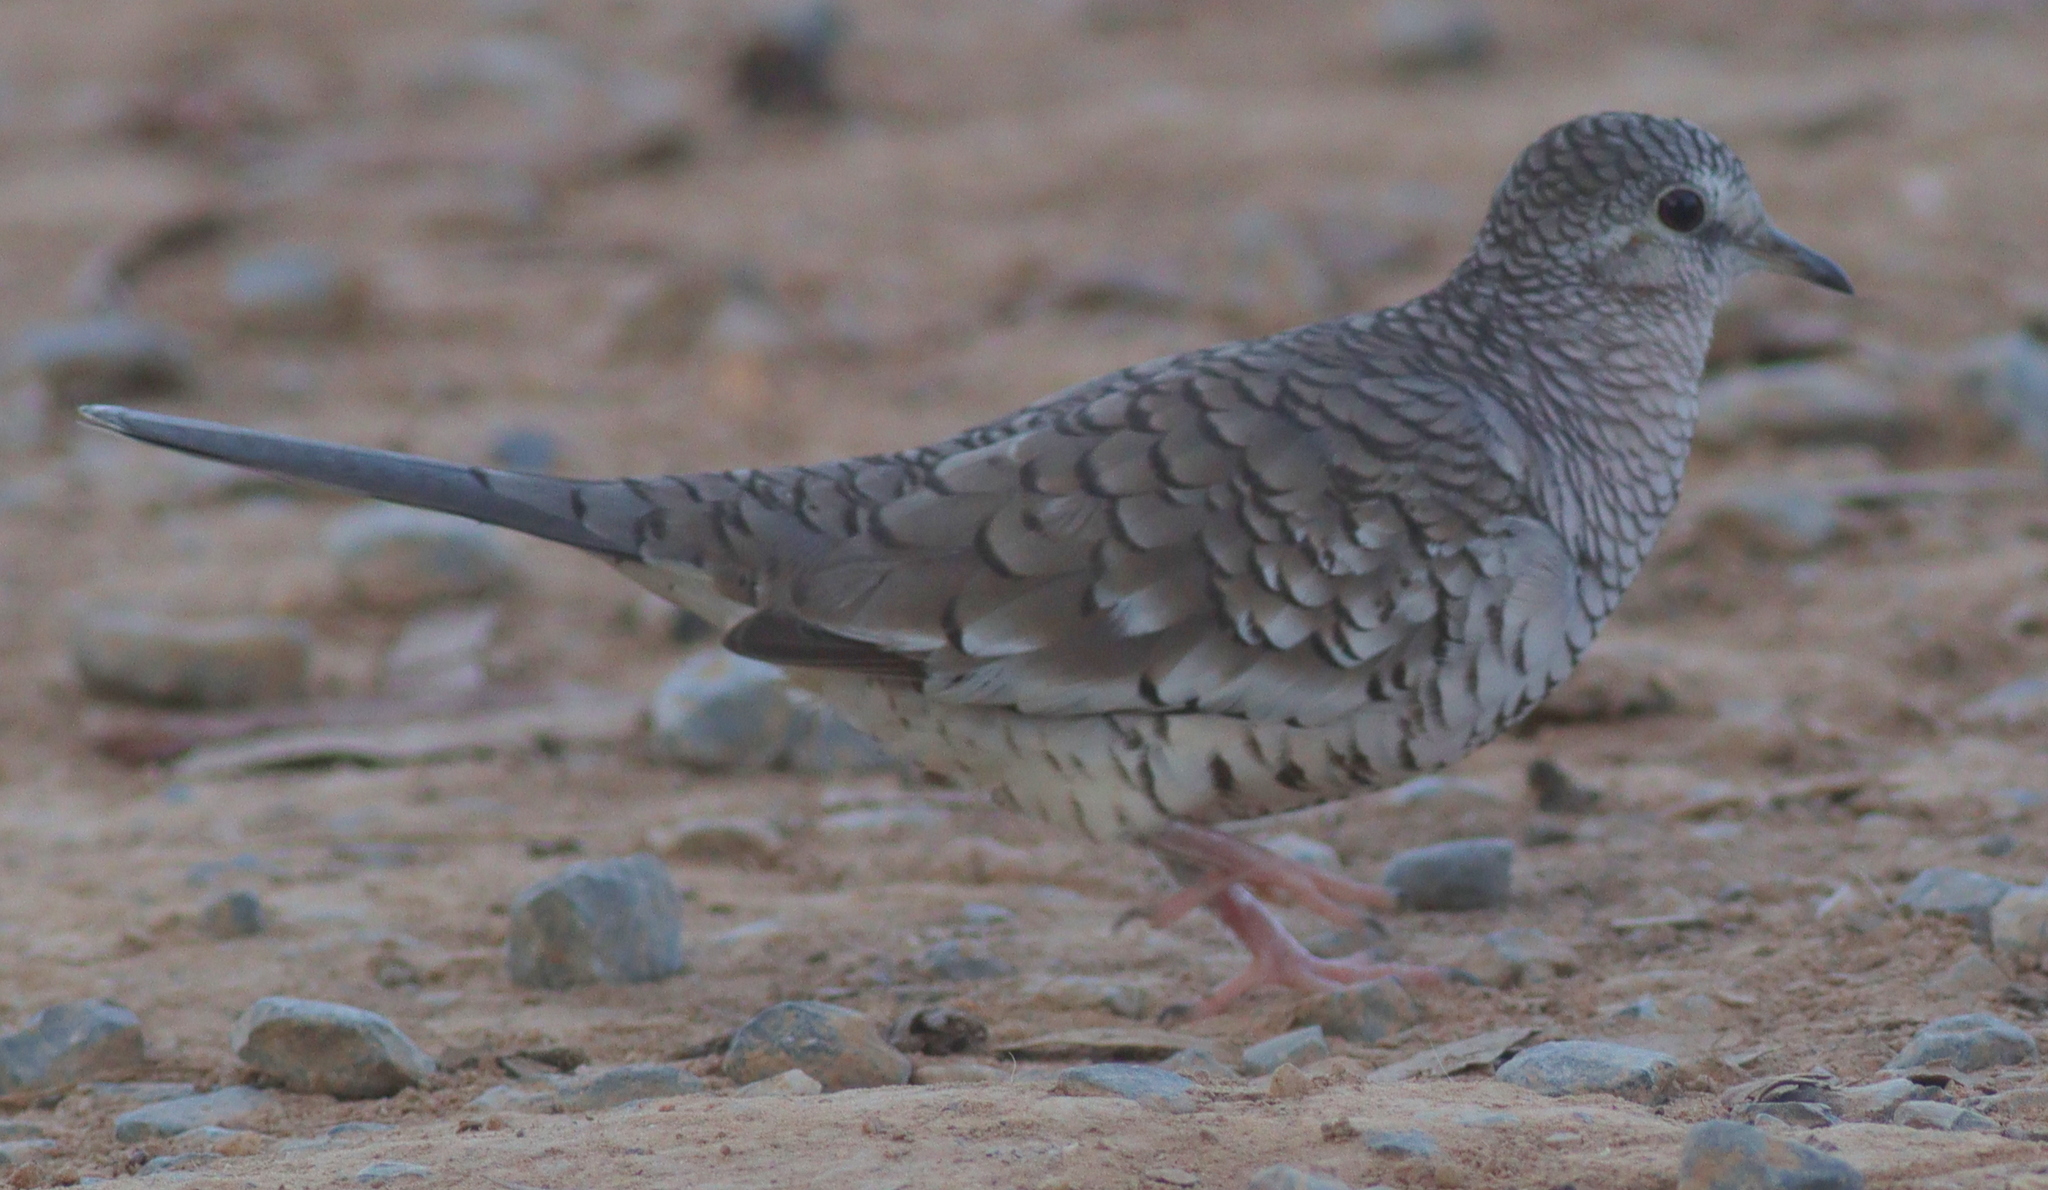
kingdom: Animalia
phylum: Chordata
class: Aves
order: Columbiformes
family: Columbidae
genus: Columbina
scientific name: Columbina squammata
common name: Scaled dove
